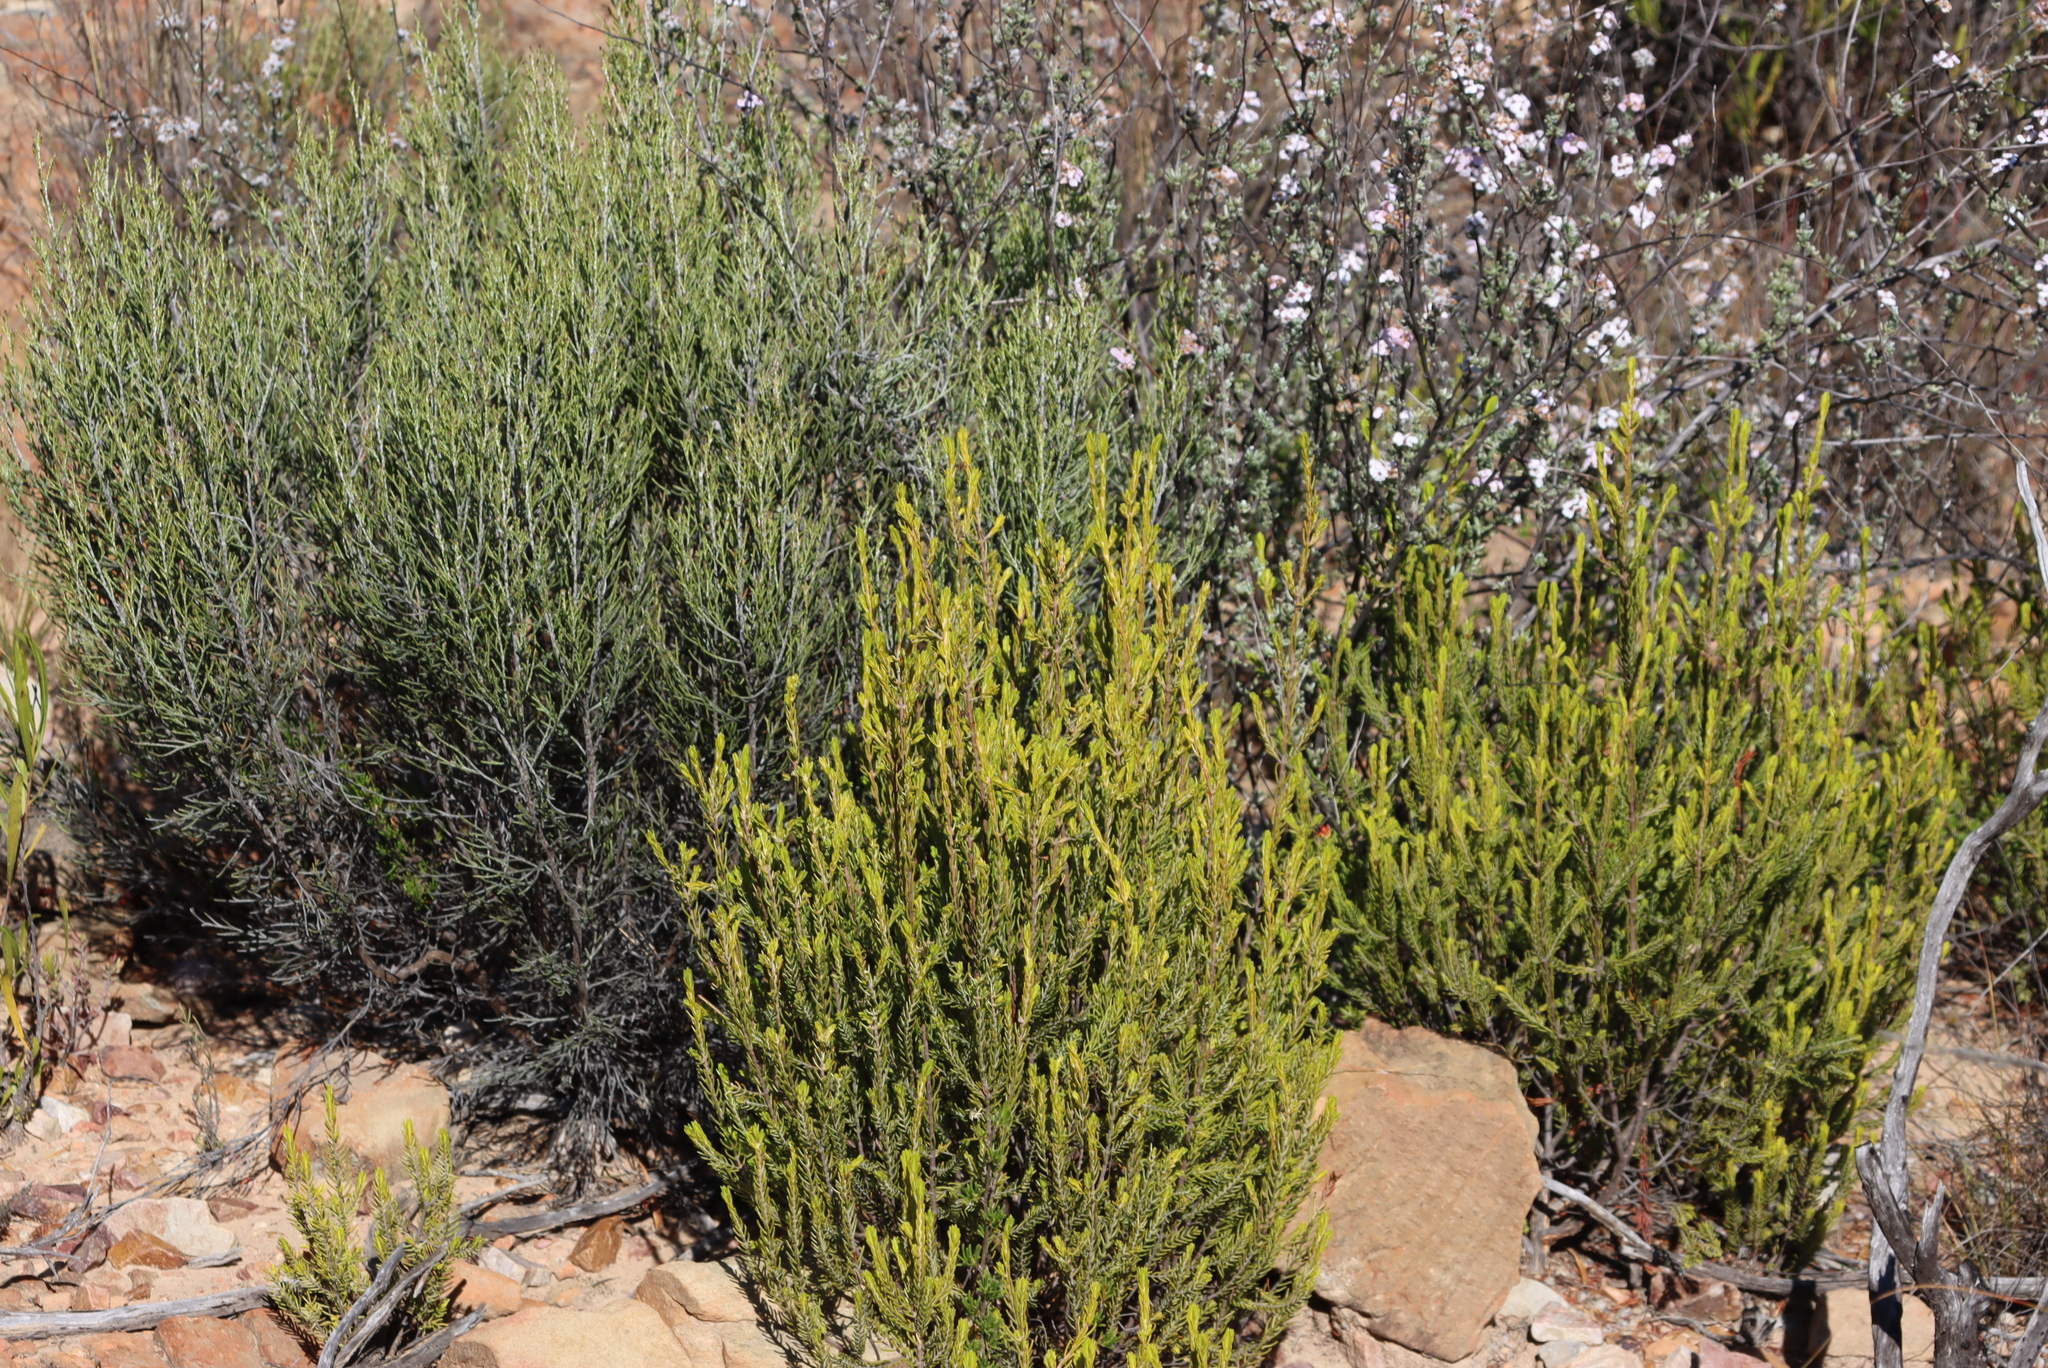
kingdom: Plantae
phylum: Tracheophyta
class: Magnoliopsida
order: Asterales
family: Asteraceae
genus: Dicerothamnus
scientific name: Dicerothamnus rhinocerotis
